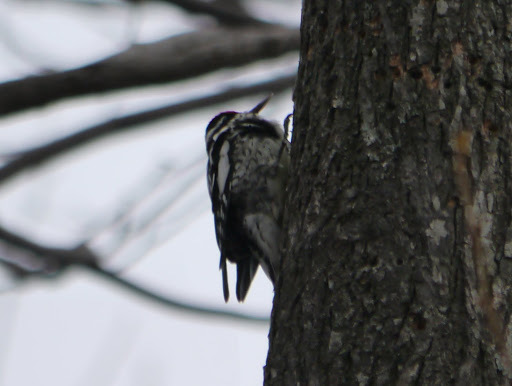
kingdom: Animalia
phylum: Chordata
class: Aves
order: Piciformes
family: Picidae
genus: Sphyrapicus
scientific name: Sphyrapicus varius
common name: Yellow-bellied sapsucker
